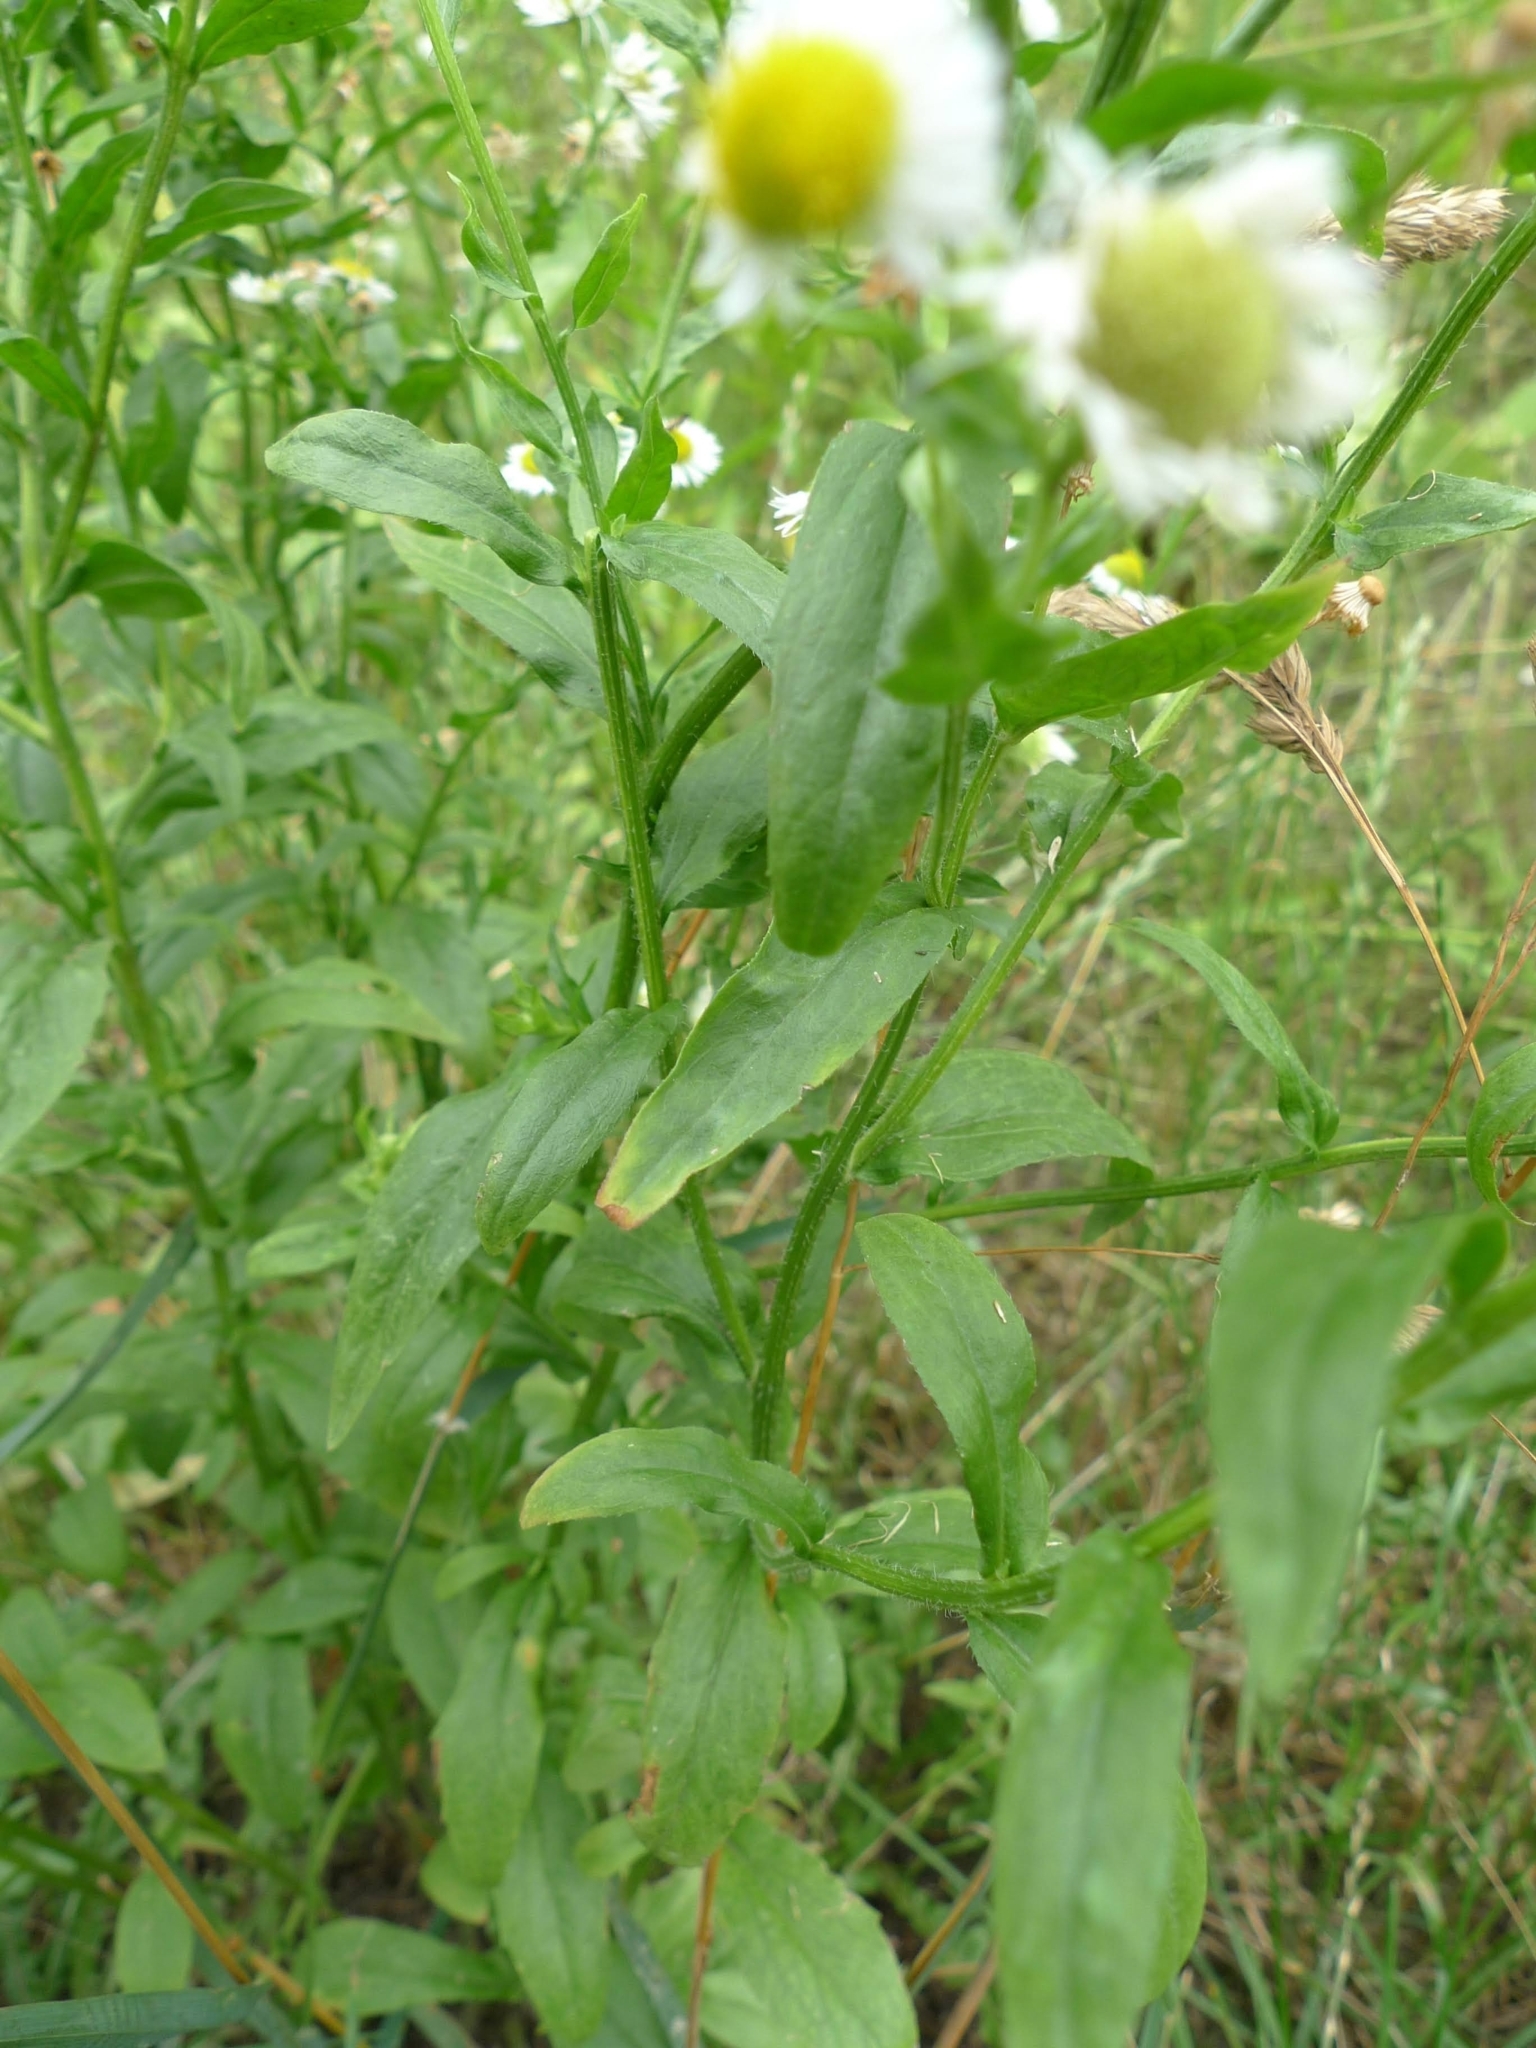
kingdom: Plantae
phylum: Tracheophyta
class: Magnoliopsida
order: Asterales
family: Asteraceae
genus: Erigeron
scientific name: Erigeron annuus
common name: Tall fleabane
